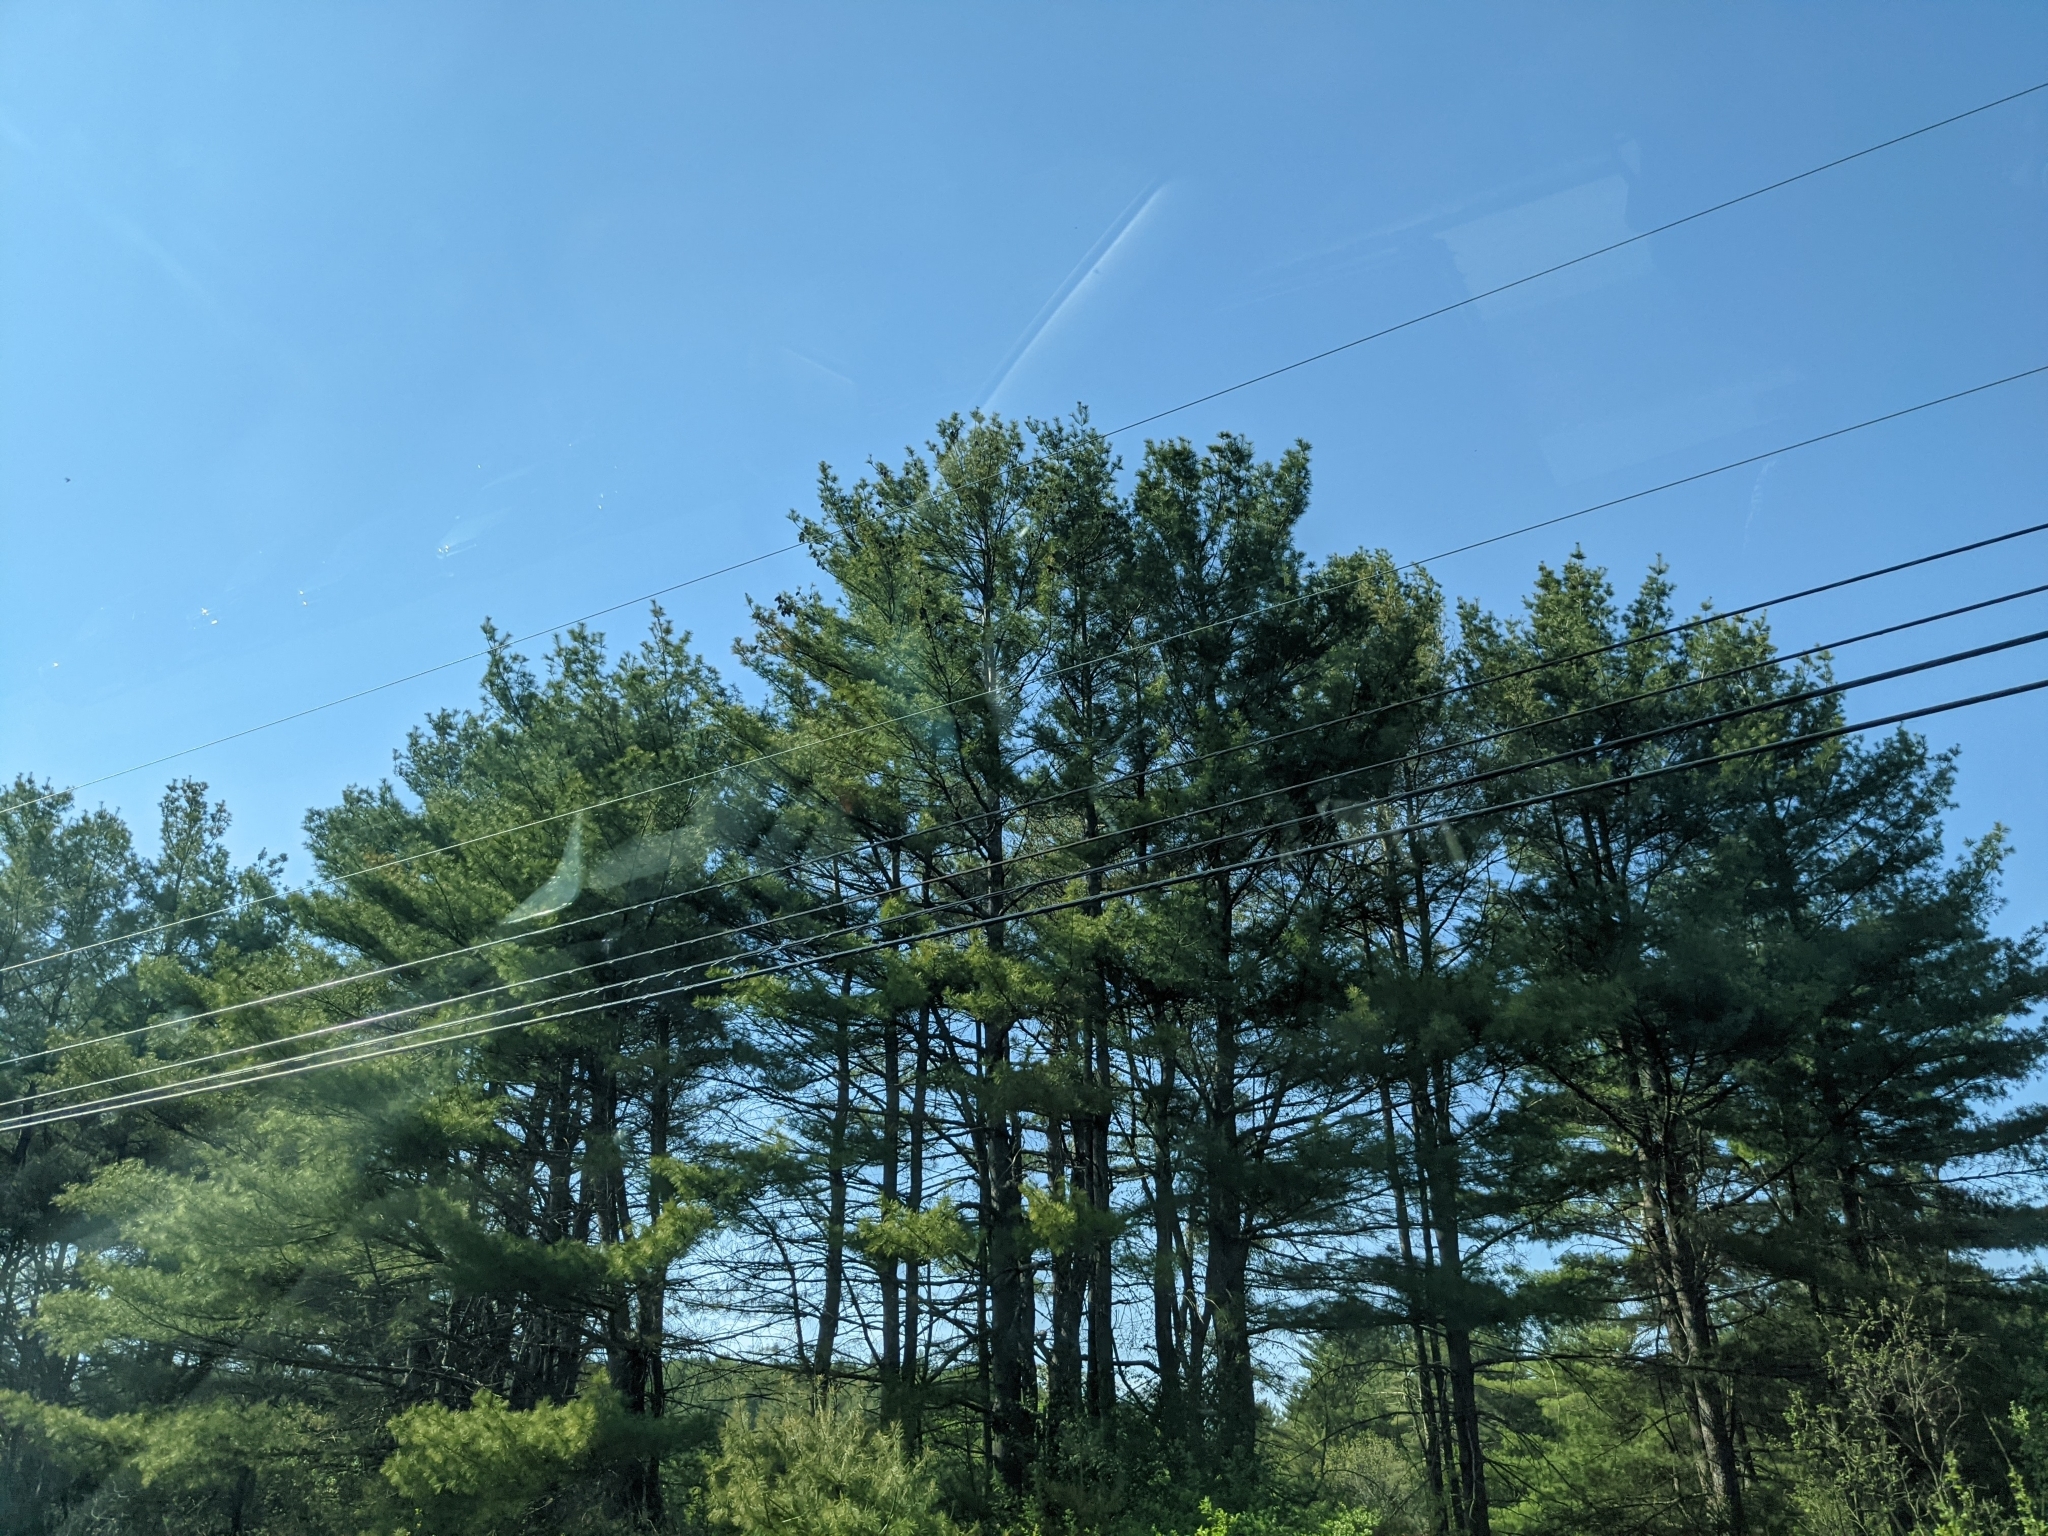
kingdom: Plantae
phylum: Tracheophyta
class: Pinopsida
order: Pinales
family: Pinaceae
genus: Pinus
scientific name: Pinus strobus
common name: Weymouth pine
